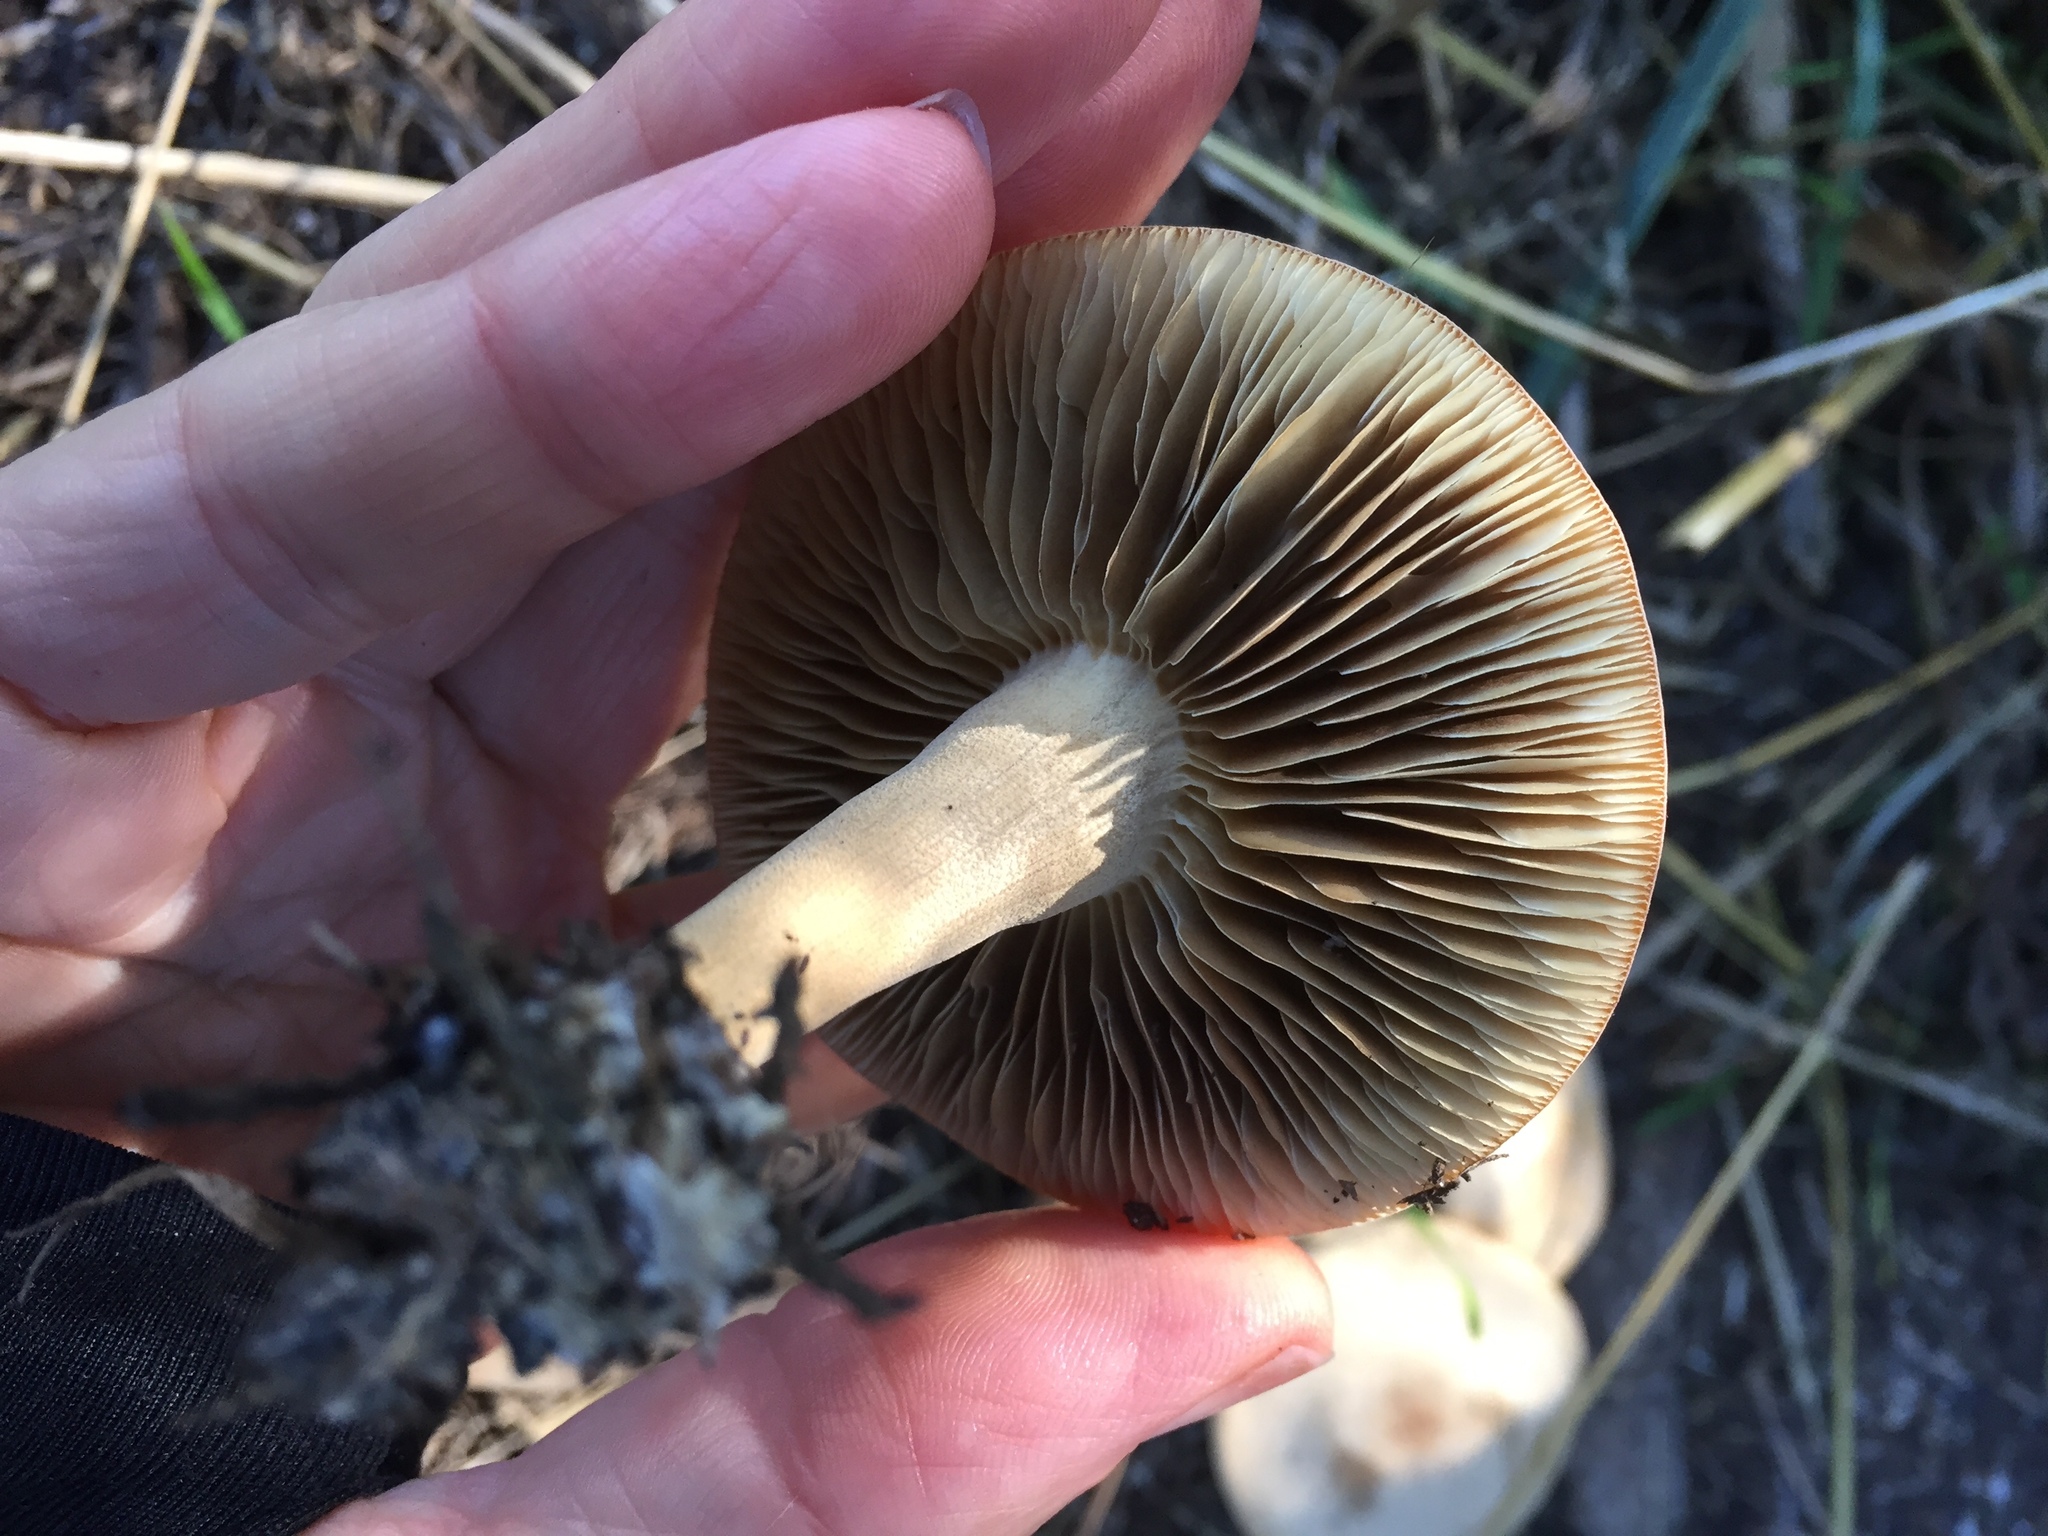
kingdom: Fungi
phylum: Basidiomycota
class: Agaricomycetes
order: Agaricales
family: Strophariaceae
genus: Agrocybe
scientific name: Agrocybe putaminum
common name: Mulch fieldcap
